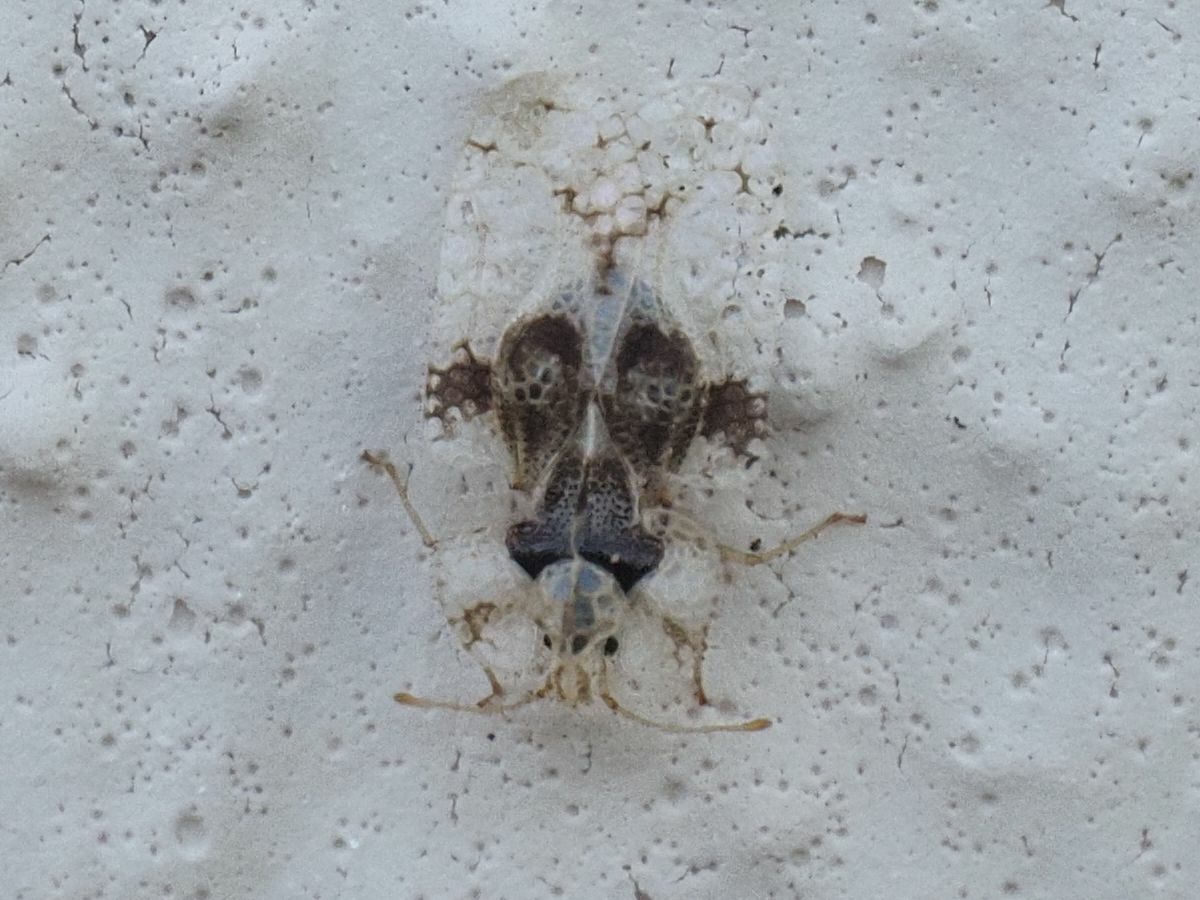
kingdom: Animalia
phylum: Arthropoda
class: Insecta
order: Hemiptera
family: Tingidae
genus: Corythucha
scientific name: Corythucha arcuata
